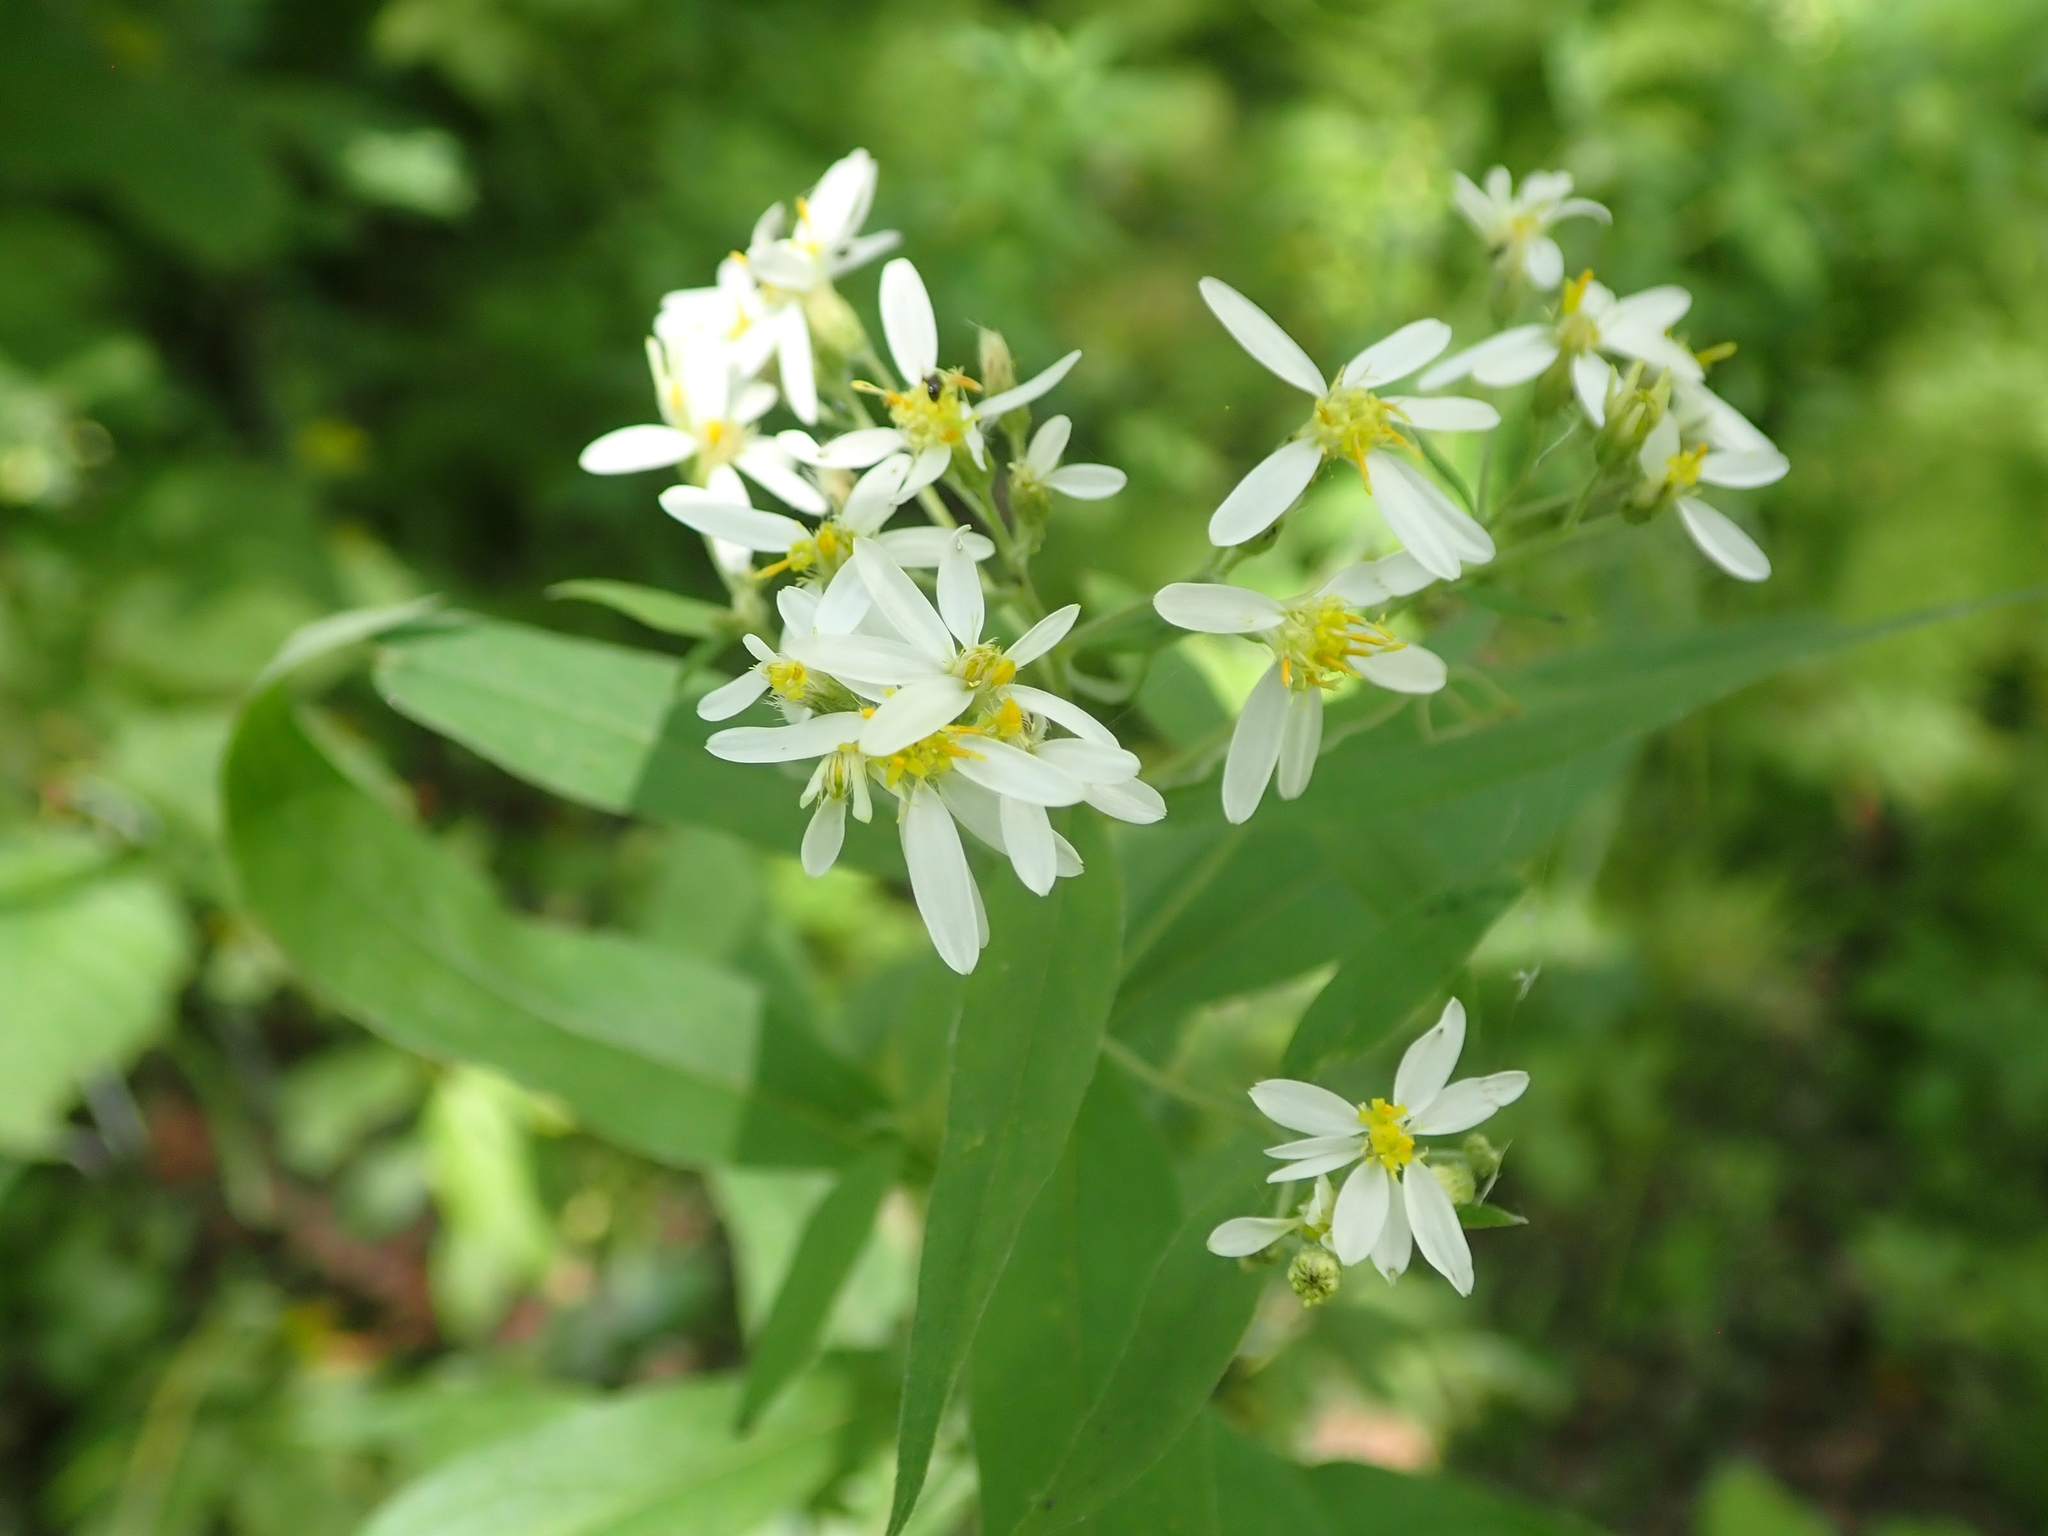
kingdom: Plantae
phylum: Tracheophyta
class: Magnoliopsida
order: Asterales
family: Asteraceae
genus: Doellingeria
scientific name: Doellingeria umbellata
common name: Flat-top white aster
